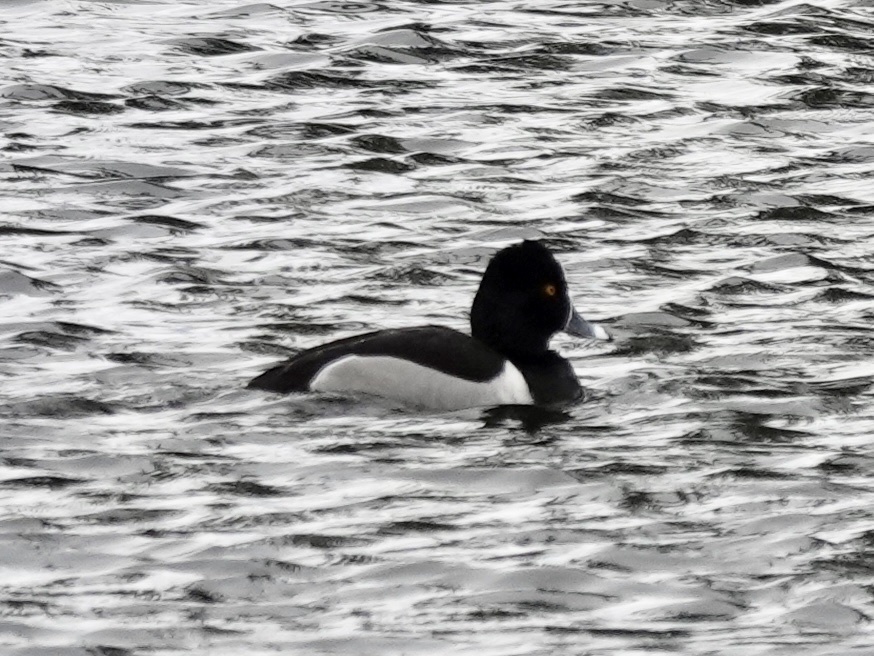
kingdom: Animalia
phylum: Chordata
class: Aves
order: Anseriformes
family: Anatidae
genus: Aythya
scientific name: Aythya collaris
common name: Ring-necked duck
